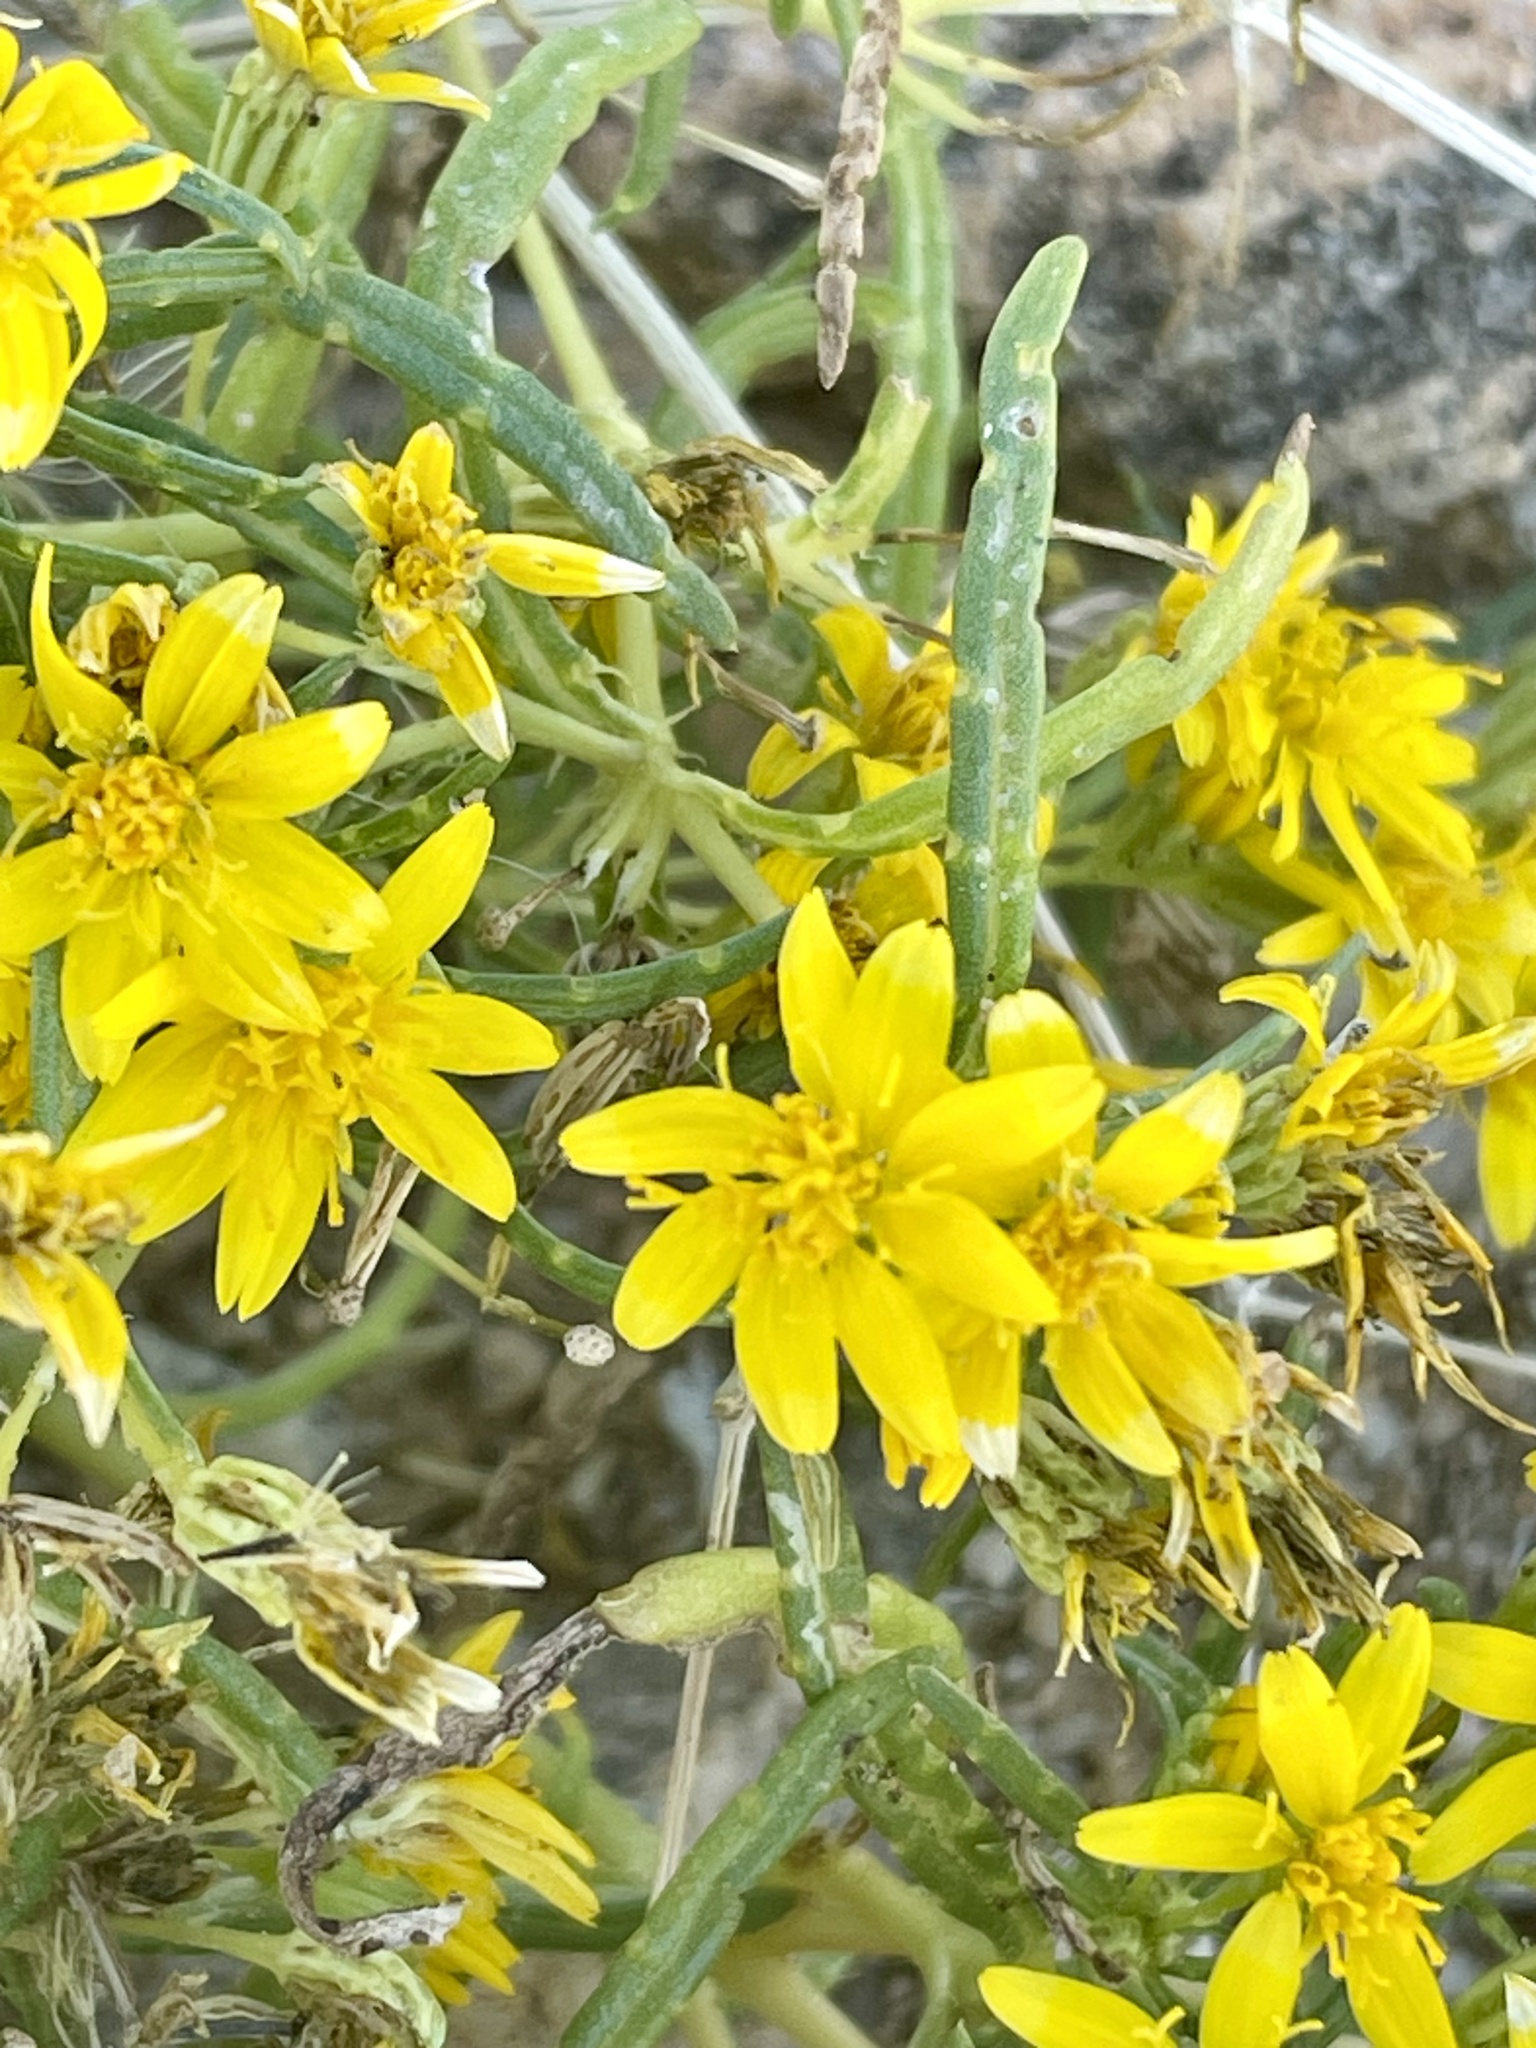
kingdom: Plantae
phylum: Tracheophyta
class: Magnoliopsida
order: Asterales
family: Asteraceae
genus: Pectis
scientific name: Pectis papposa
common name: Many-bristle chinchweed
